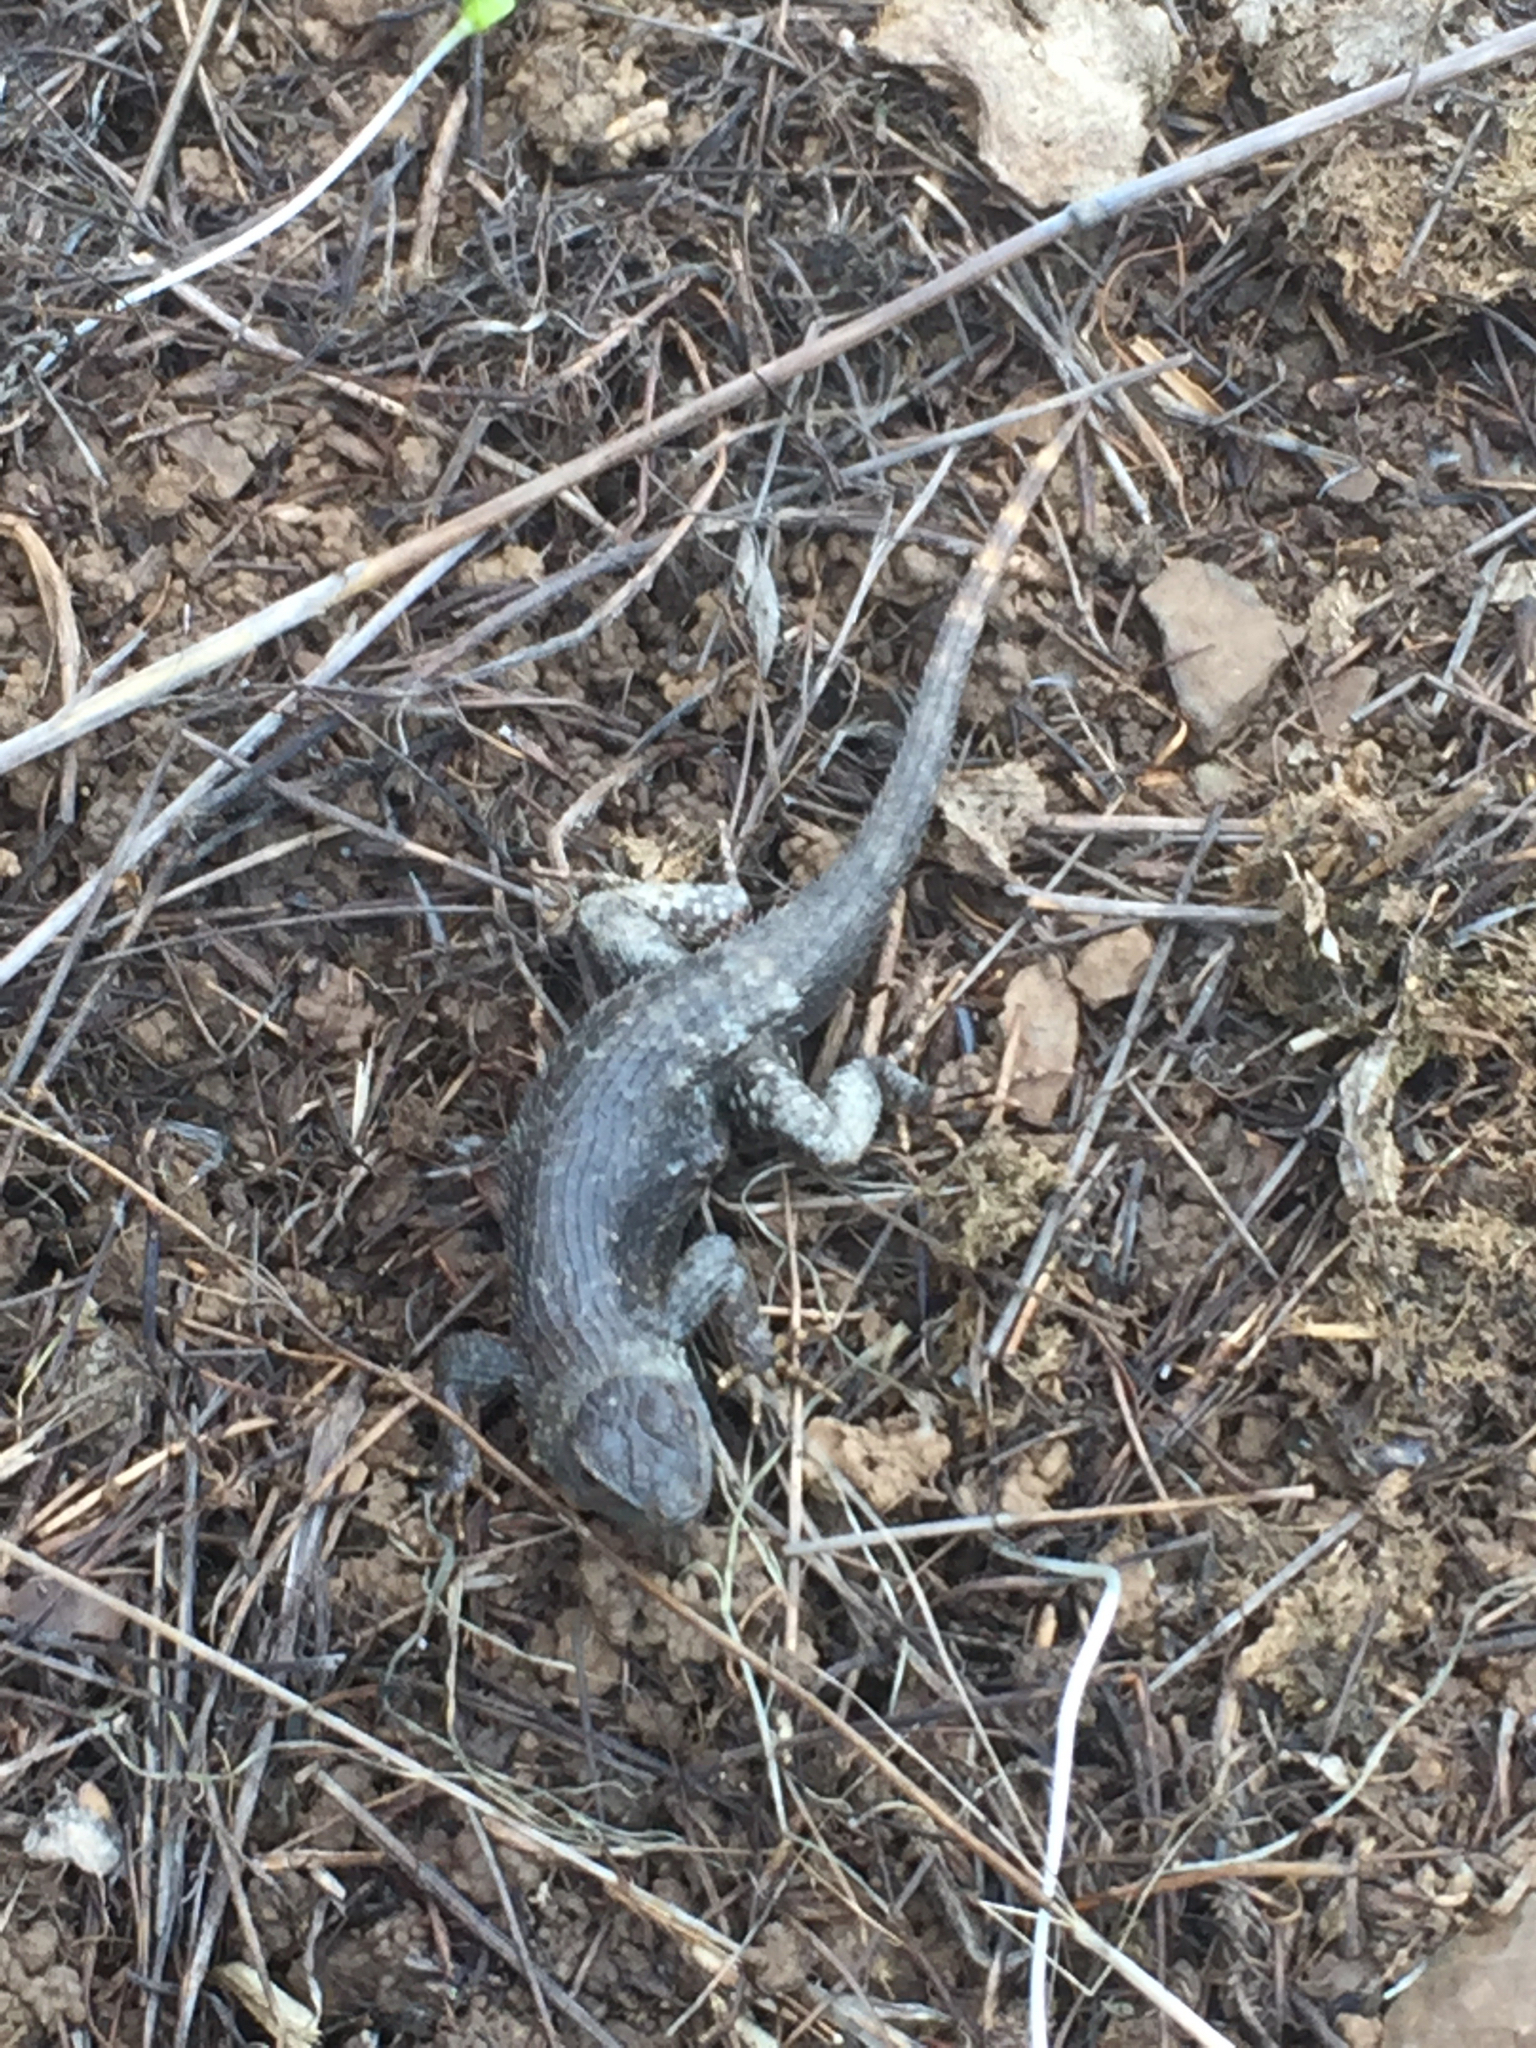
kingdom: Animalia
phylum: Chordata
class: Squamata
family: Phrynosomatidae
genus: Sceloporus
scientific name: Sceloporus occidentalis
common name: Western fence lizard
